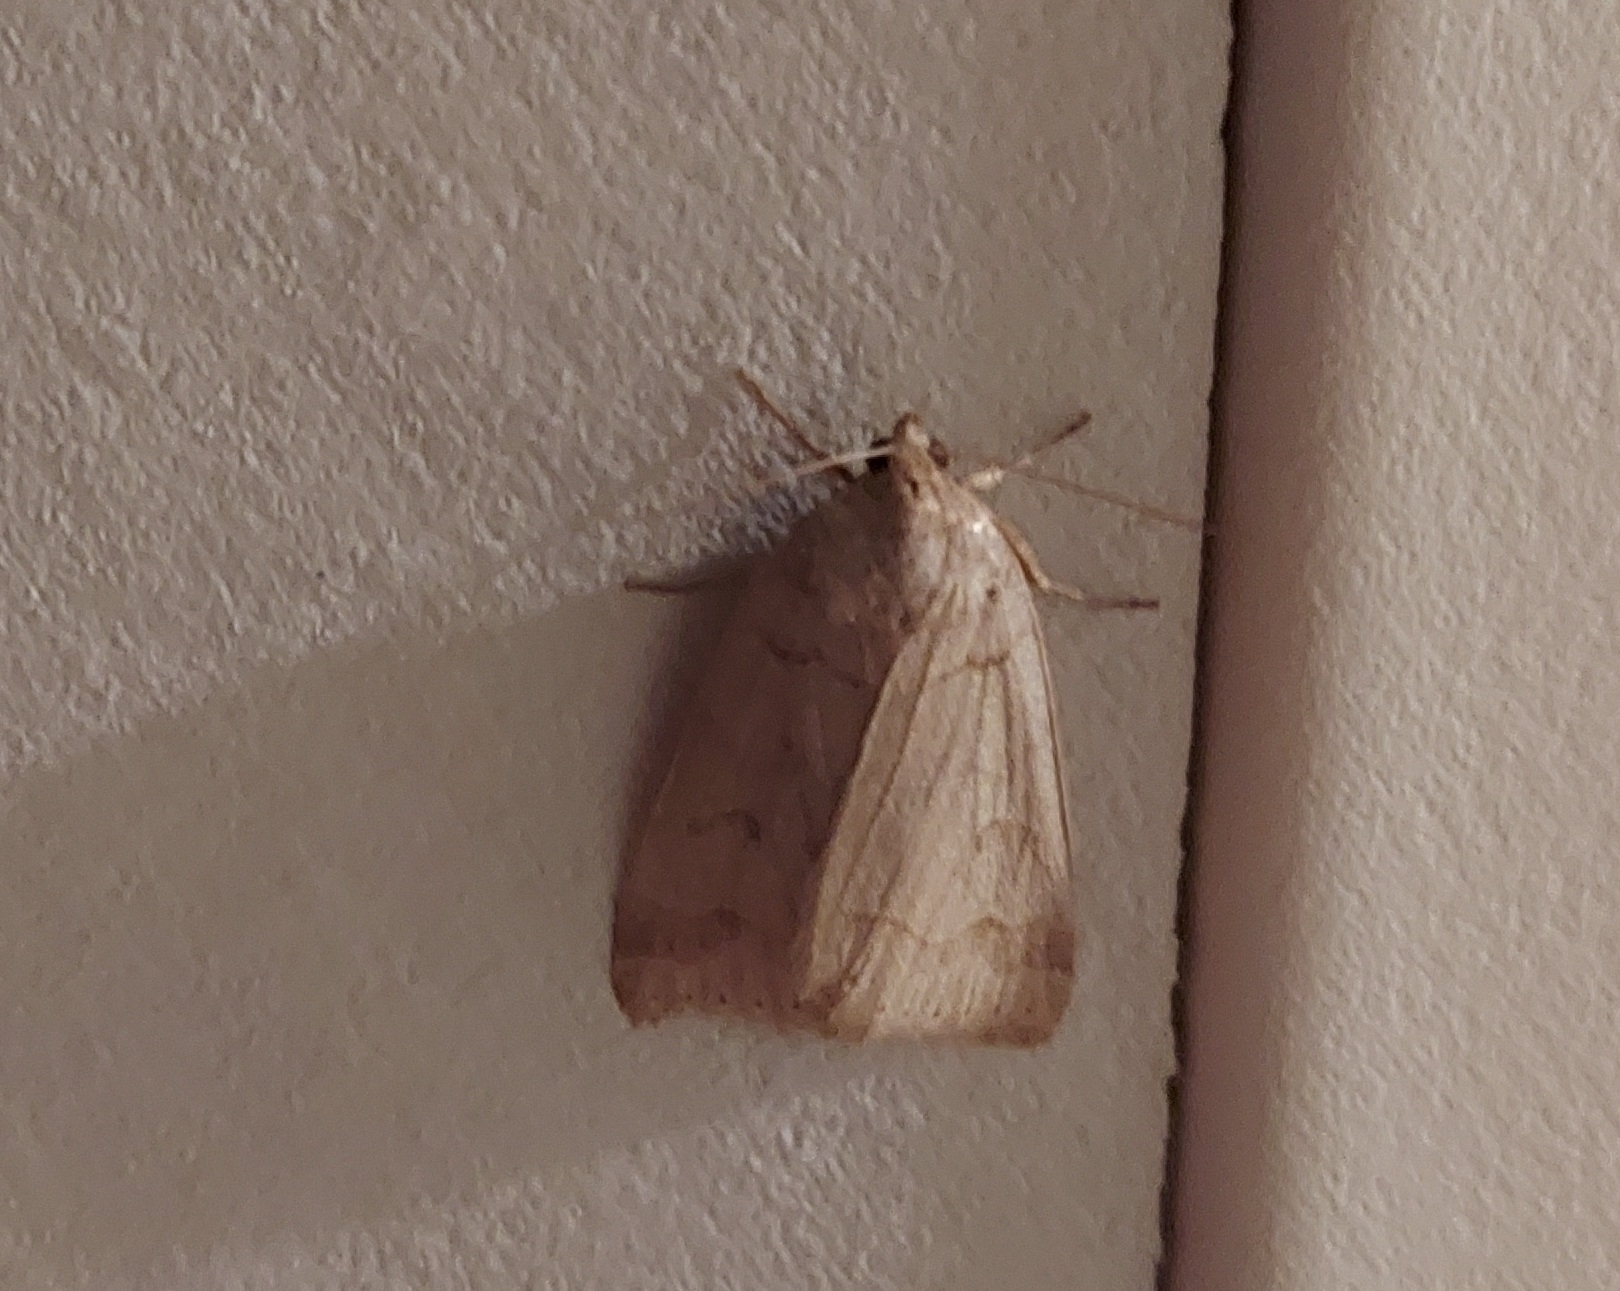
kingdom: Animalia
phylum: Arthropoda
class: Insecta
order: Lepidoptera
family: Erebidae
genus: Phoberia
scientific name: Phoberia atomaris
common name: Common oak moth
